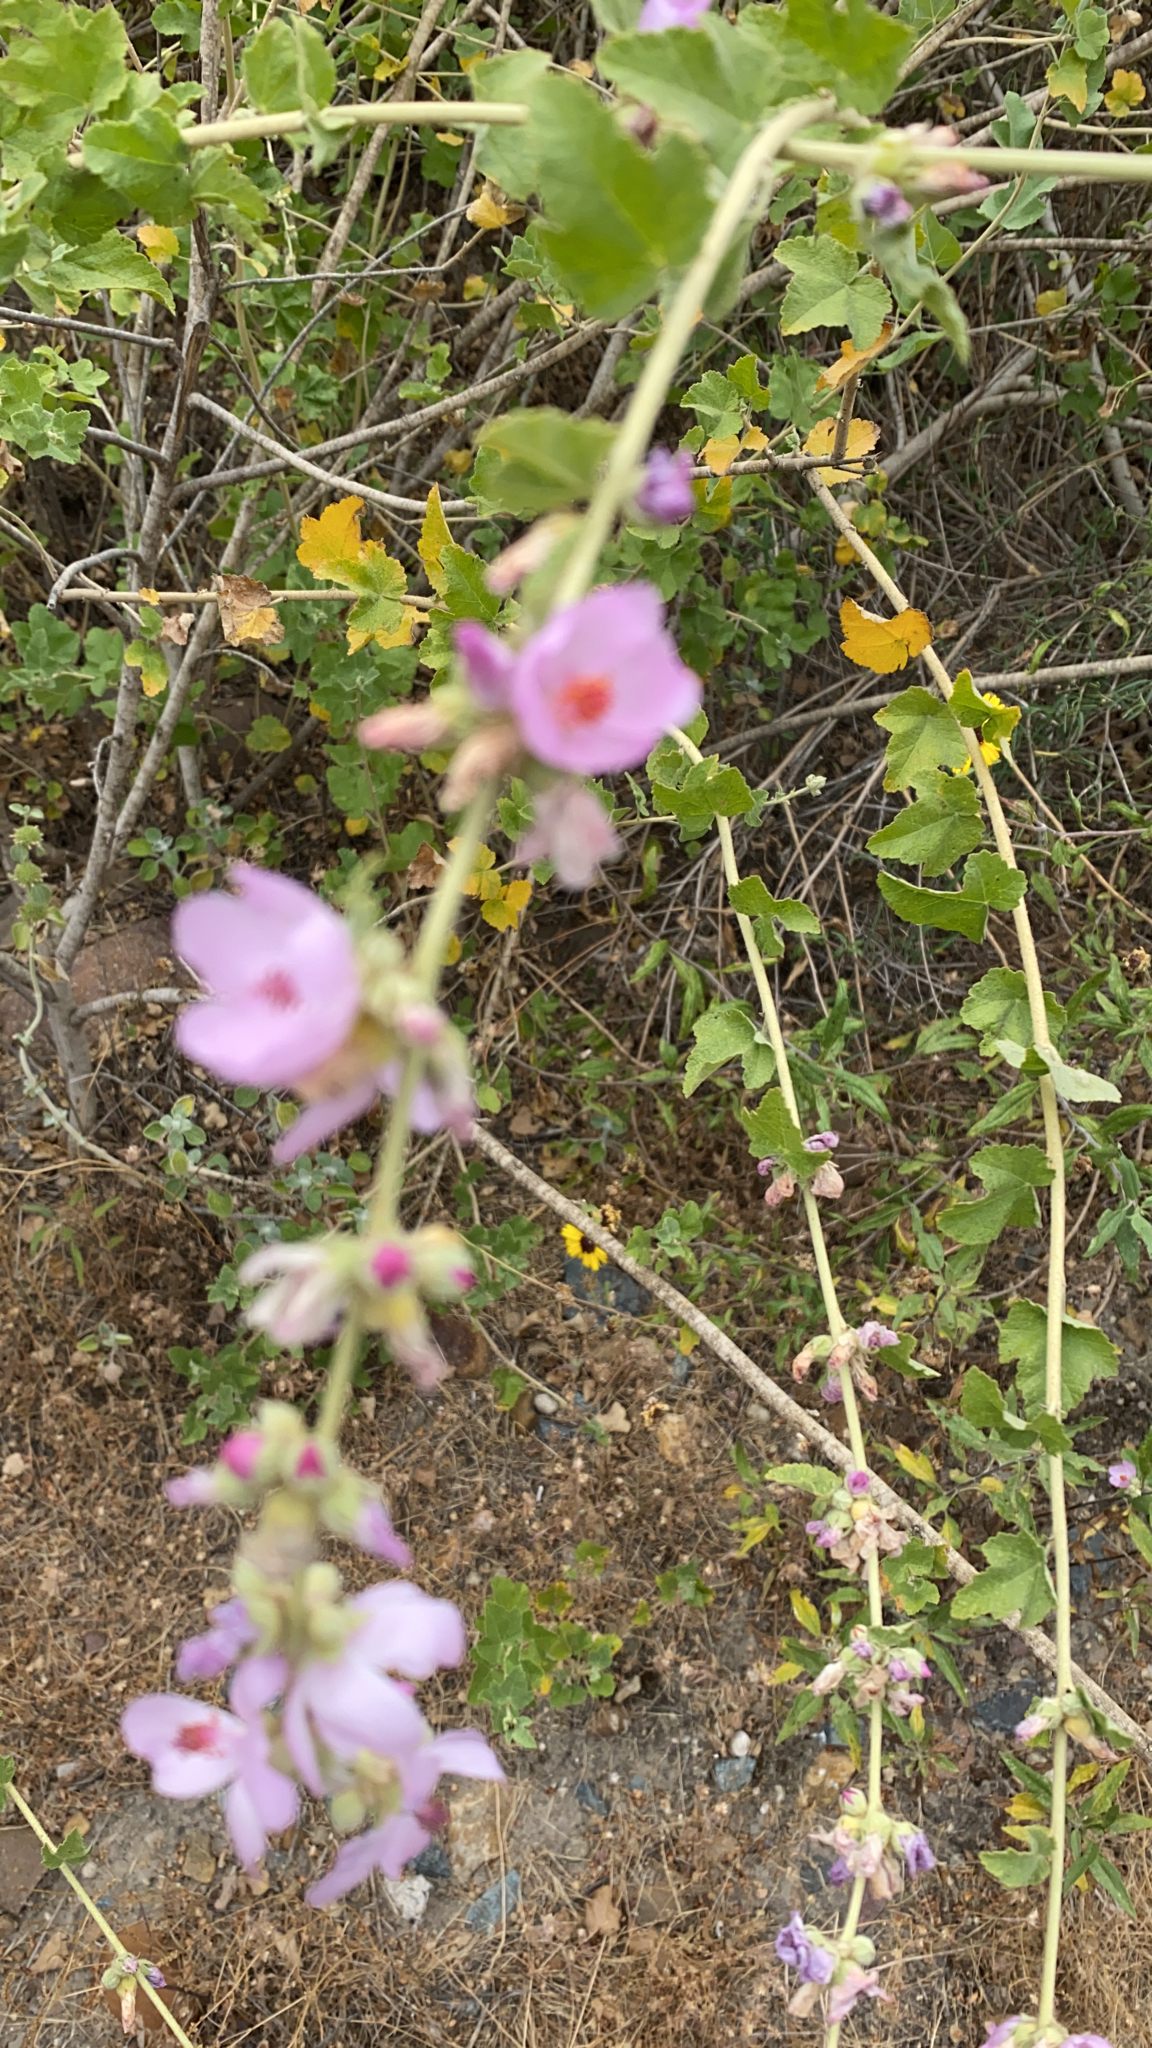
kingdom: Plantae
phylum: Tracheophyta
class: Magnoliopsida
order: Malvales
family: Malvaceae
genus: Malacothamnus
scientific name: Malacothamnus fasciculatus
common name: Sant cruz island bush-mallow
